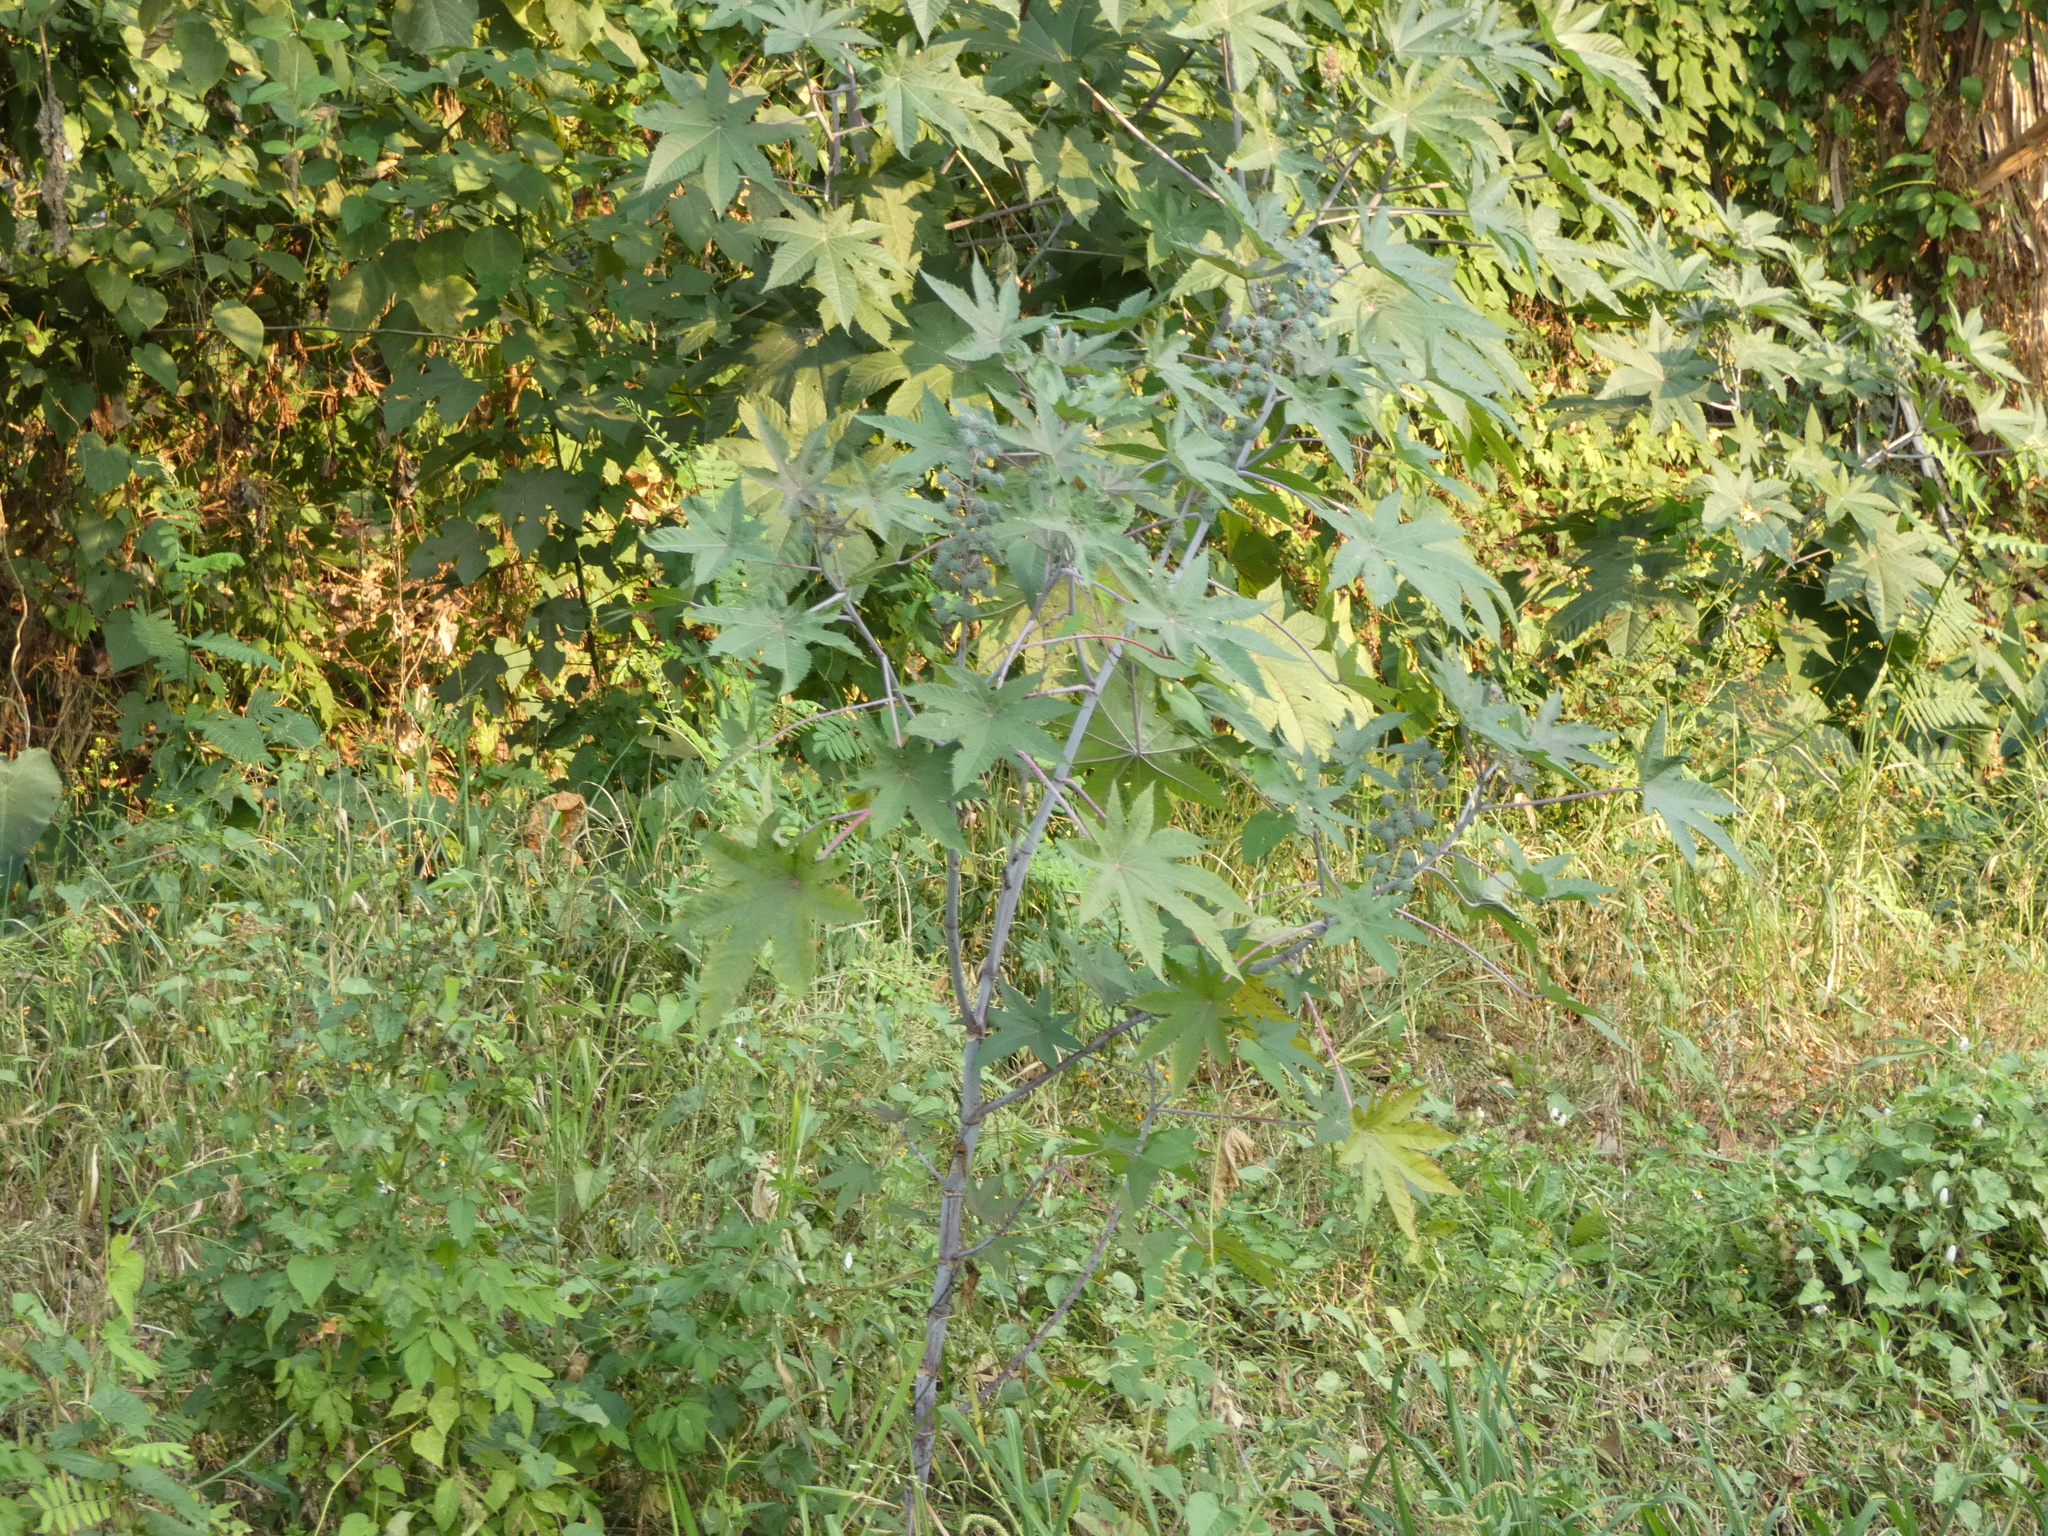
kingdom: Plantae
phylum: Tracheophyta
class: Magnoliopsida
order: Malpighiales
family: Euphorbiaceae
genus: Ricinus
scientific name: Ricinus communis
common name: Castor-oil-plant
